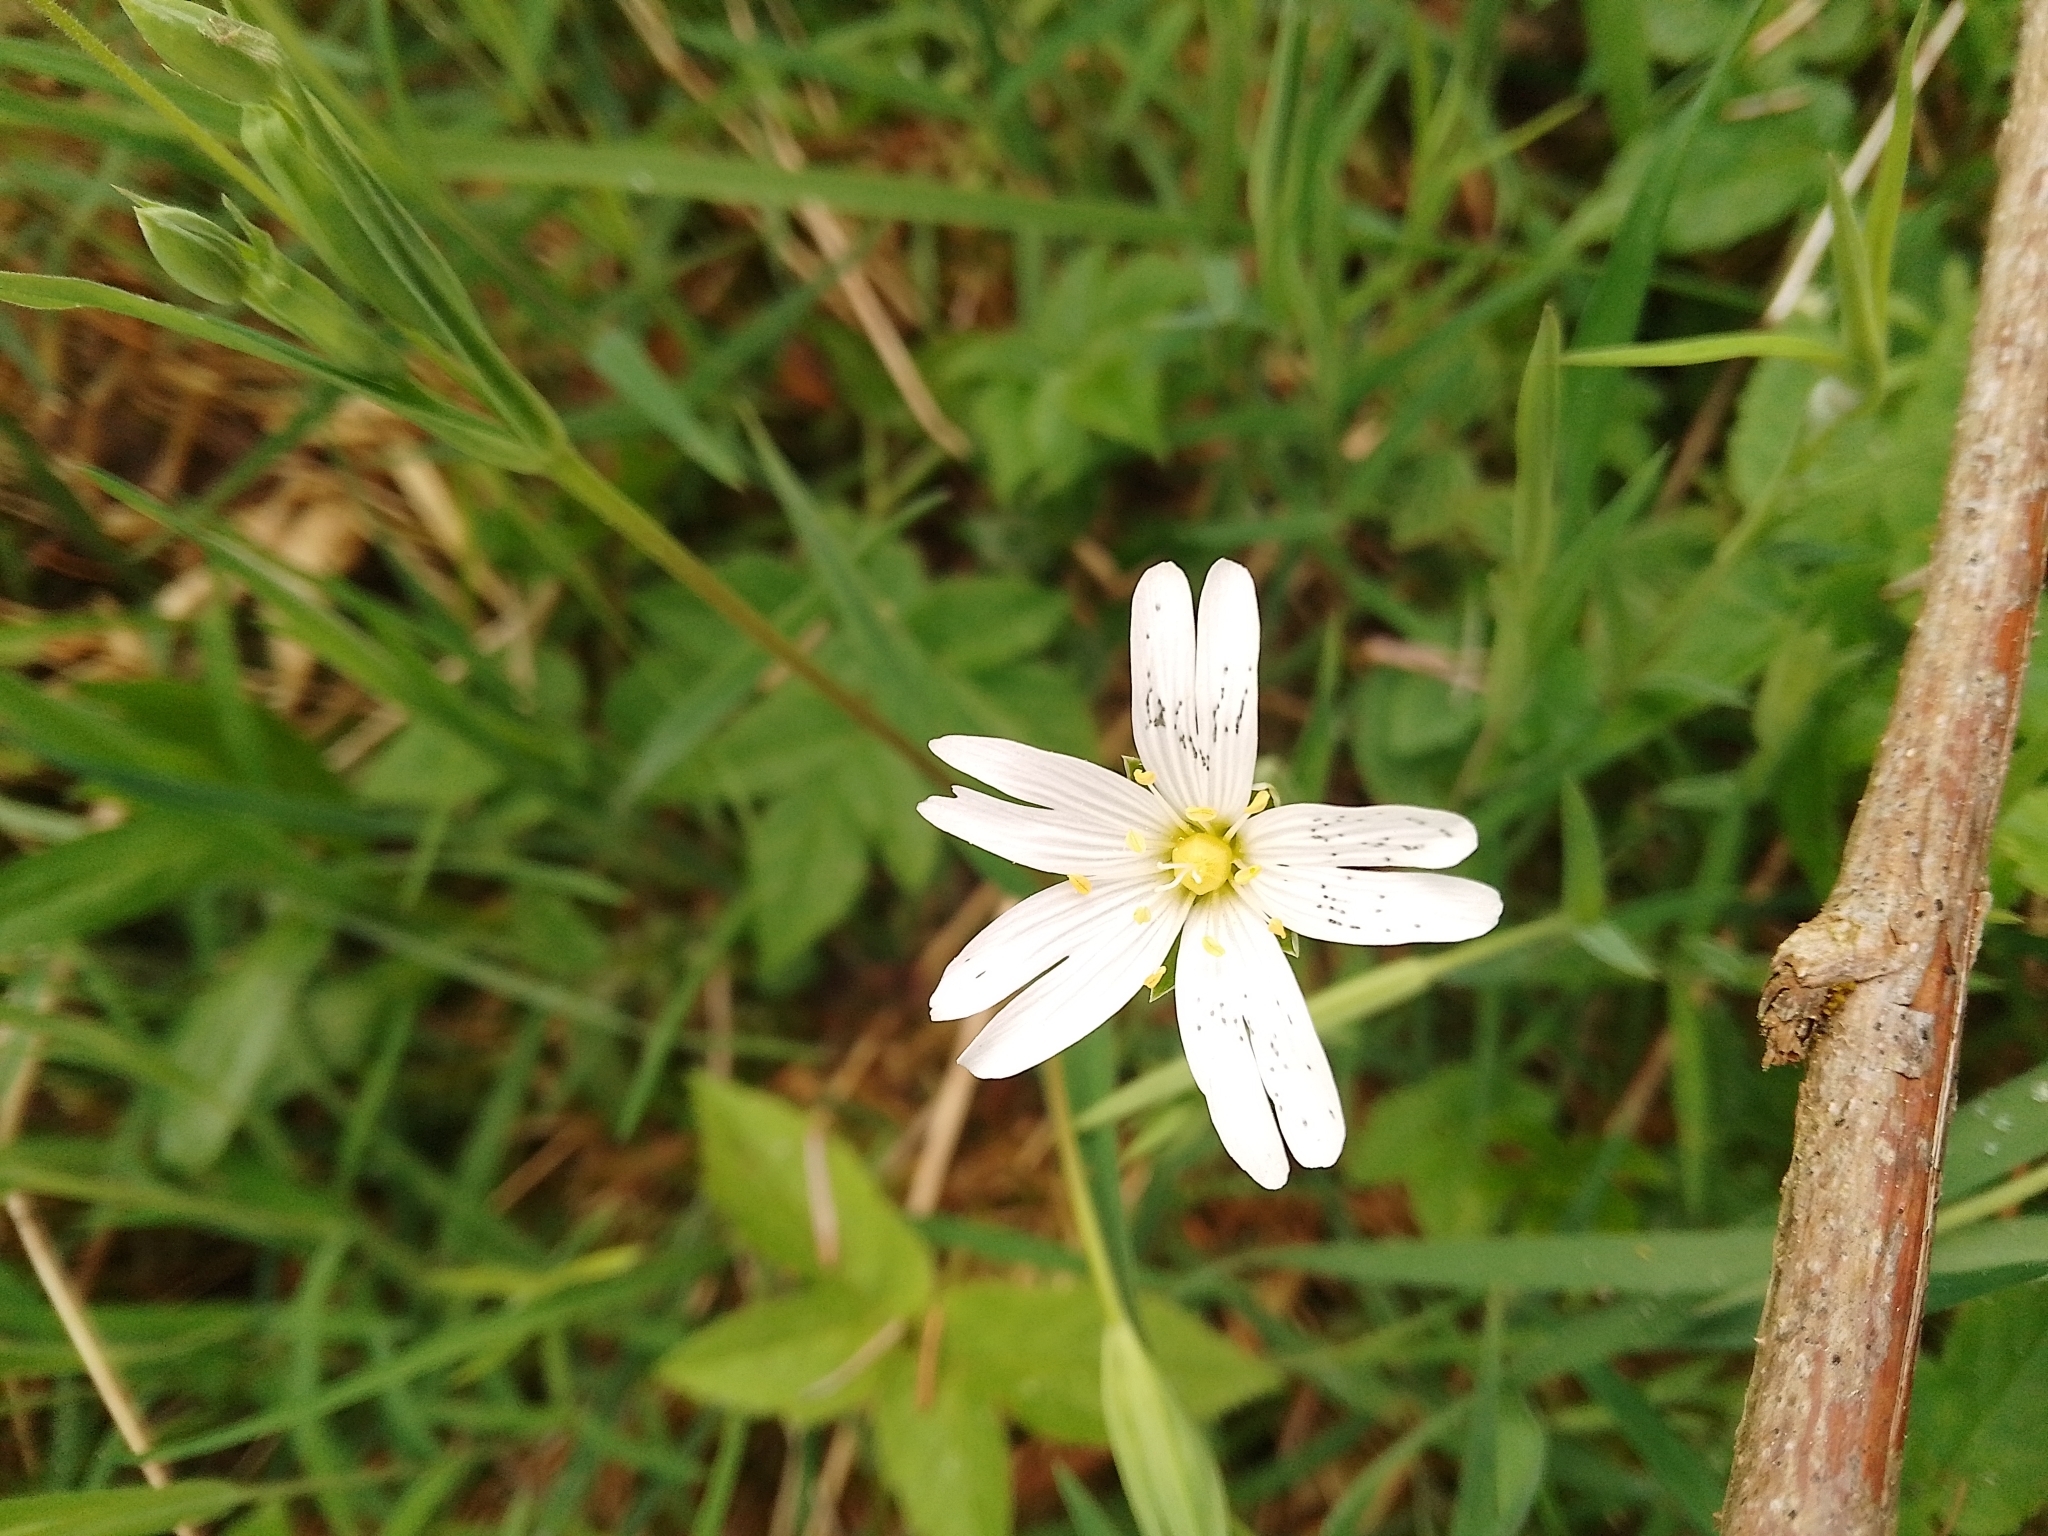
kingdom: Plantae
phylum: Tracheophyta
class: Magnoliopsida
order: Caryophyllales
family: Caryophyllaceae
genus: Rabelera
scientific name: Rabelera holostea
